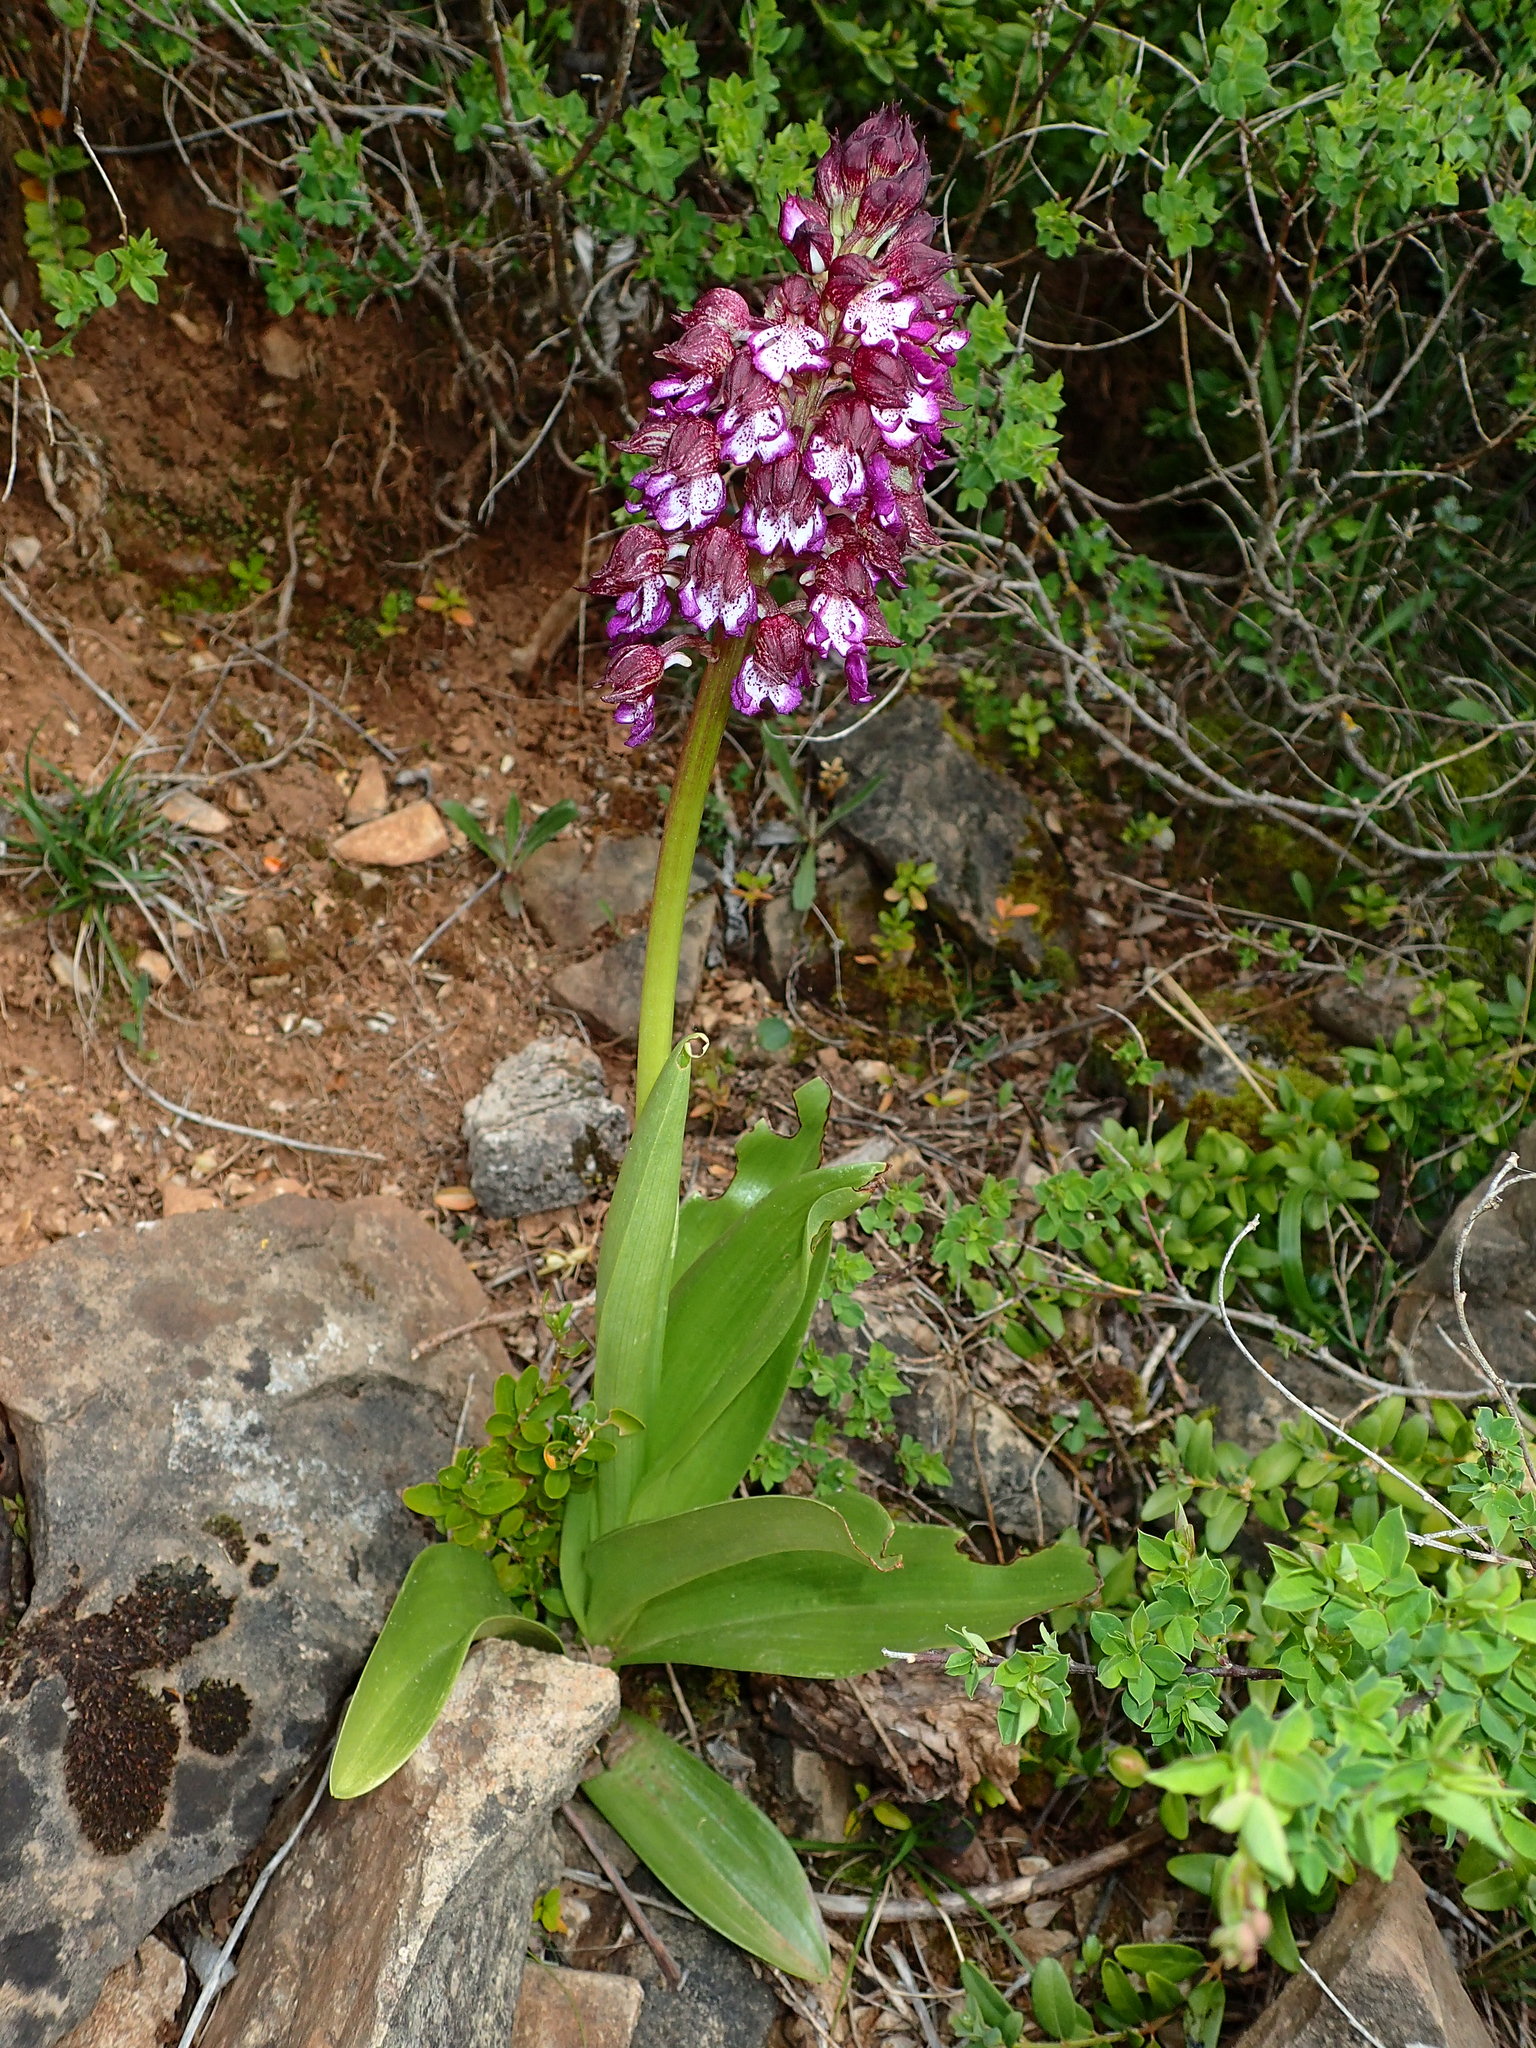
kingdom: Plantae
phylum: Tracheophyta
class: Liliopsida
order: Asparagales
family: Orchidaceae
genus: Orchis
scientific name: Orchis purpurea
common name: Lady orchid
